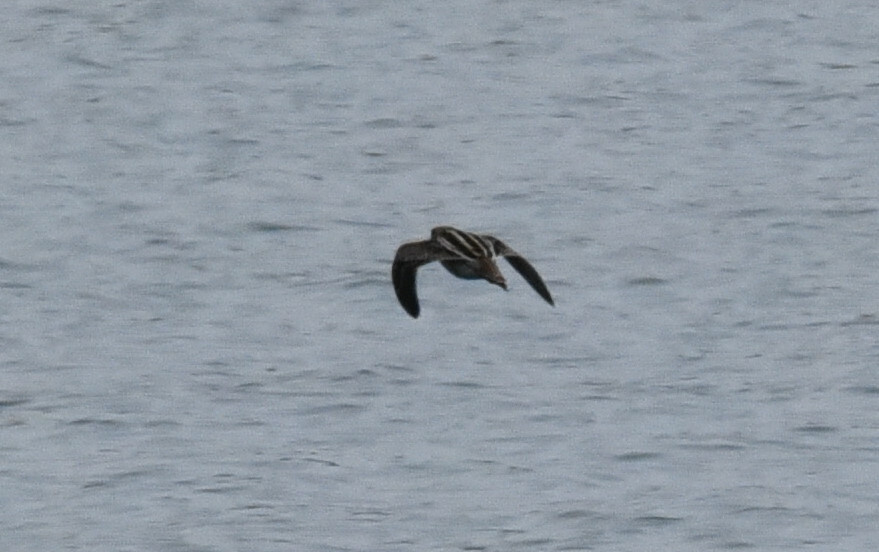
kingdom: Animalia
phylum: Chordata
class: Aves
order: Charadriiformes
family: Scolopacidae
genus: Gallinago
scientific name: Gallinago delicata
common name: Wilson's snipe
